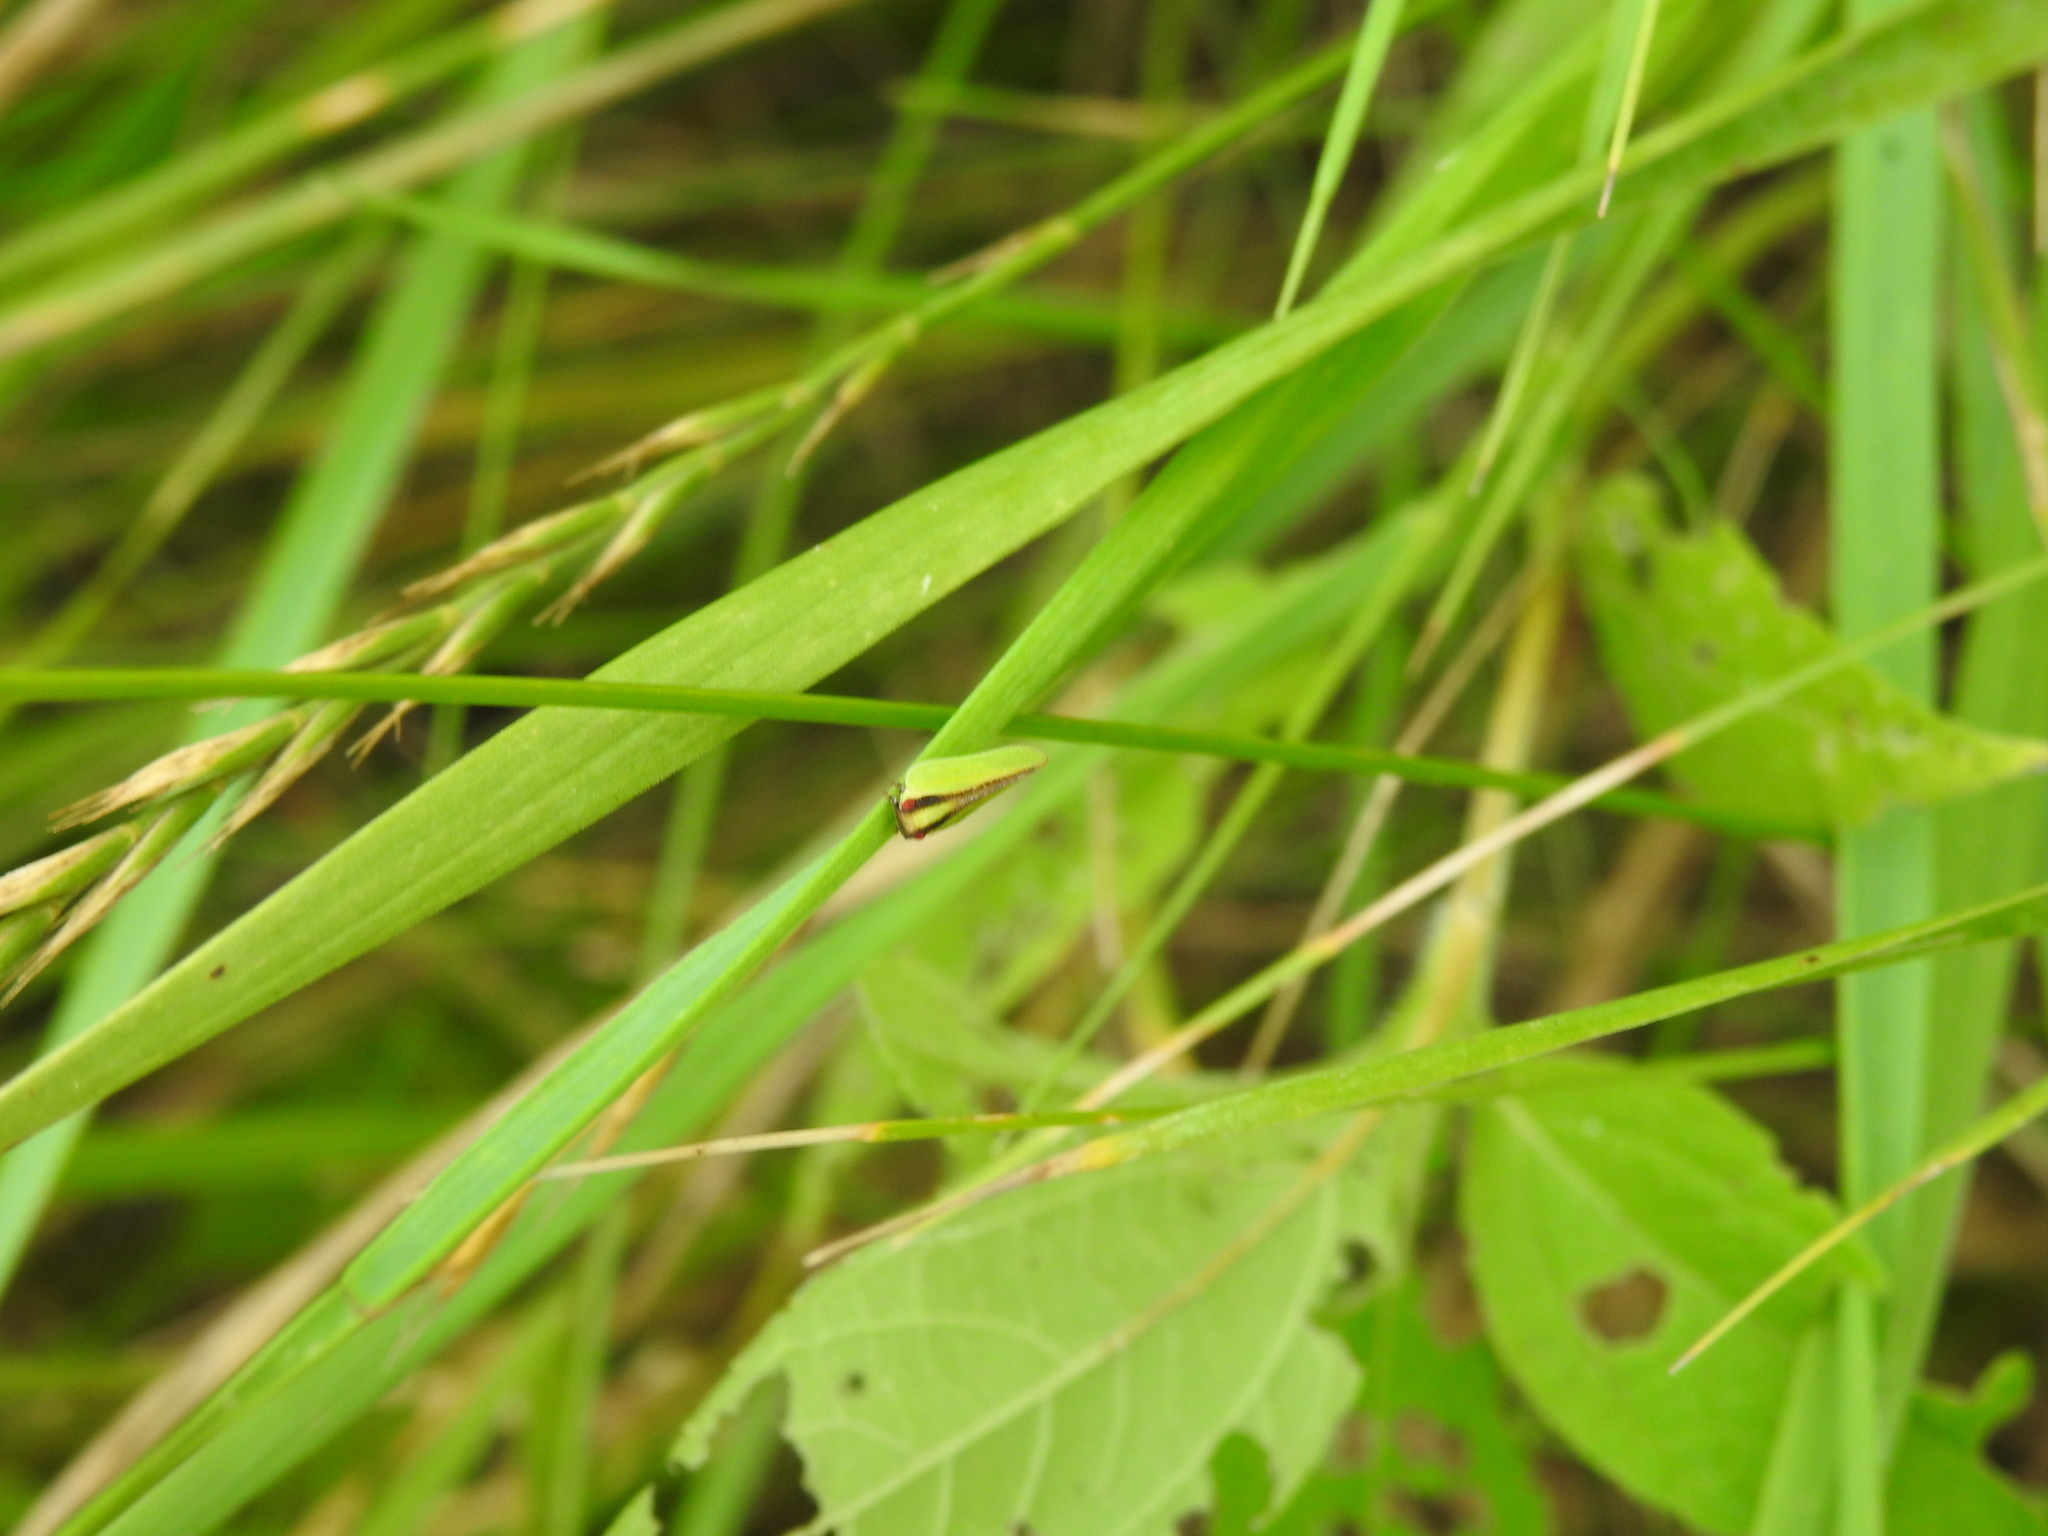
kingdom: Animalia
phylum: Arthropoda
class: Insecta
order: Hemiptera
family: Acanaloniidae
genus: Acanalonia
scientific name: Acanalonia bivittata
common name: Two-striped planthopper
